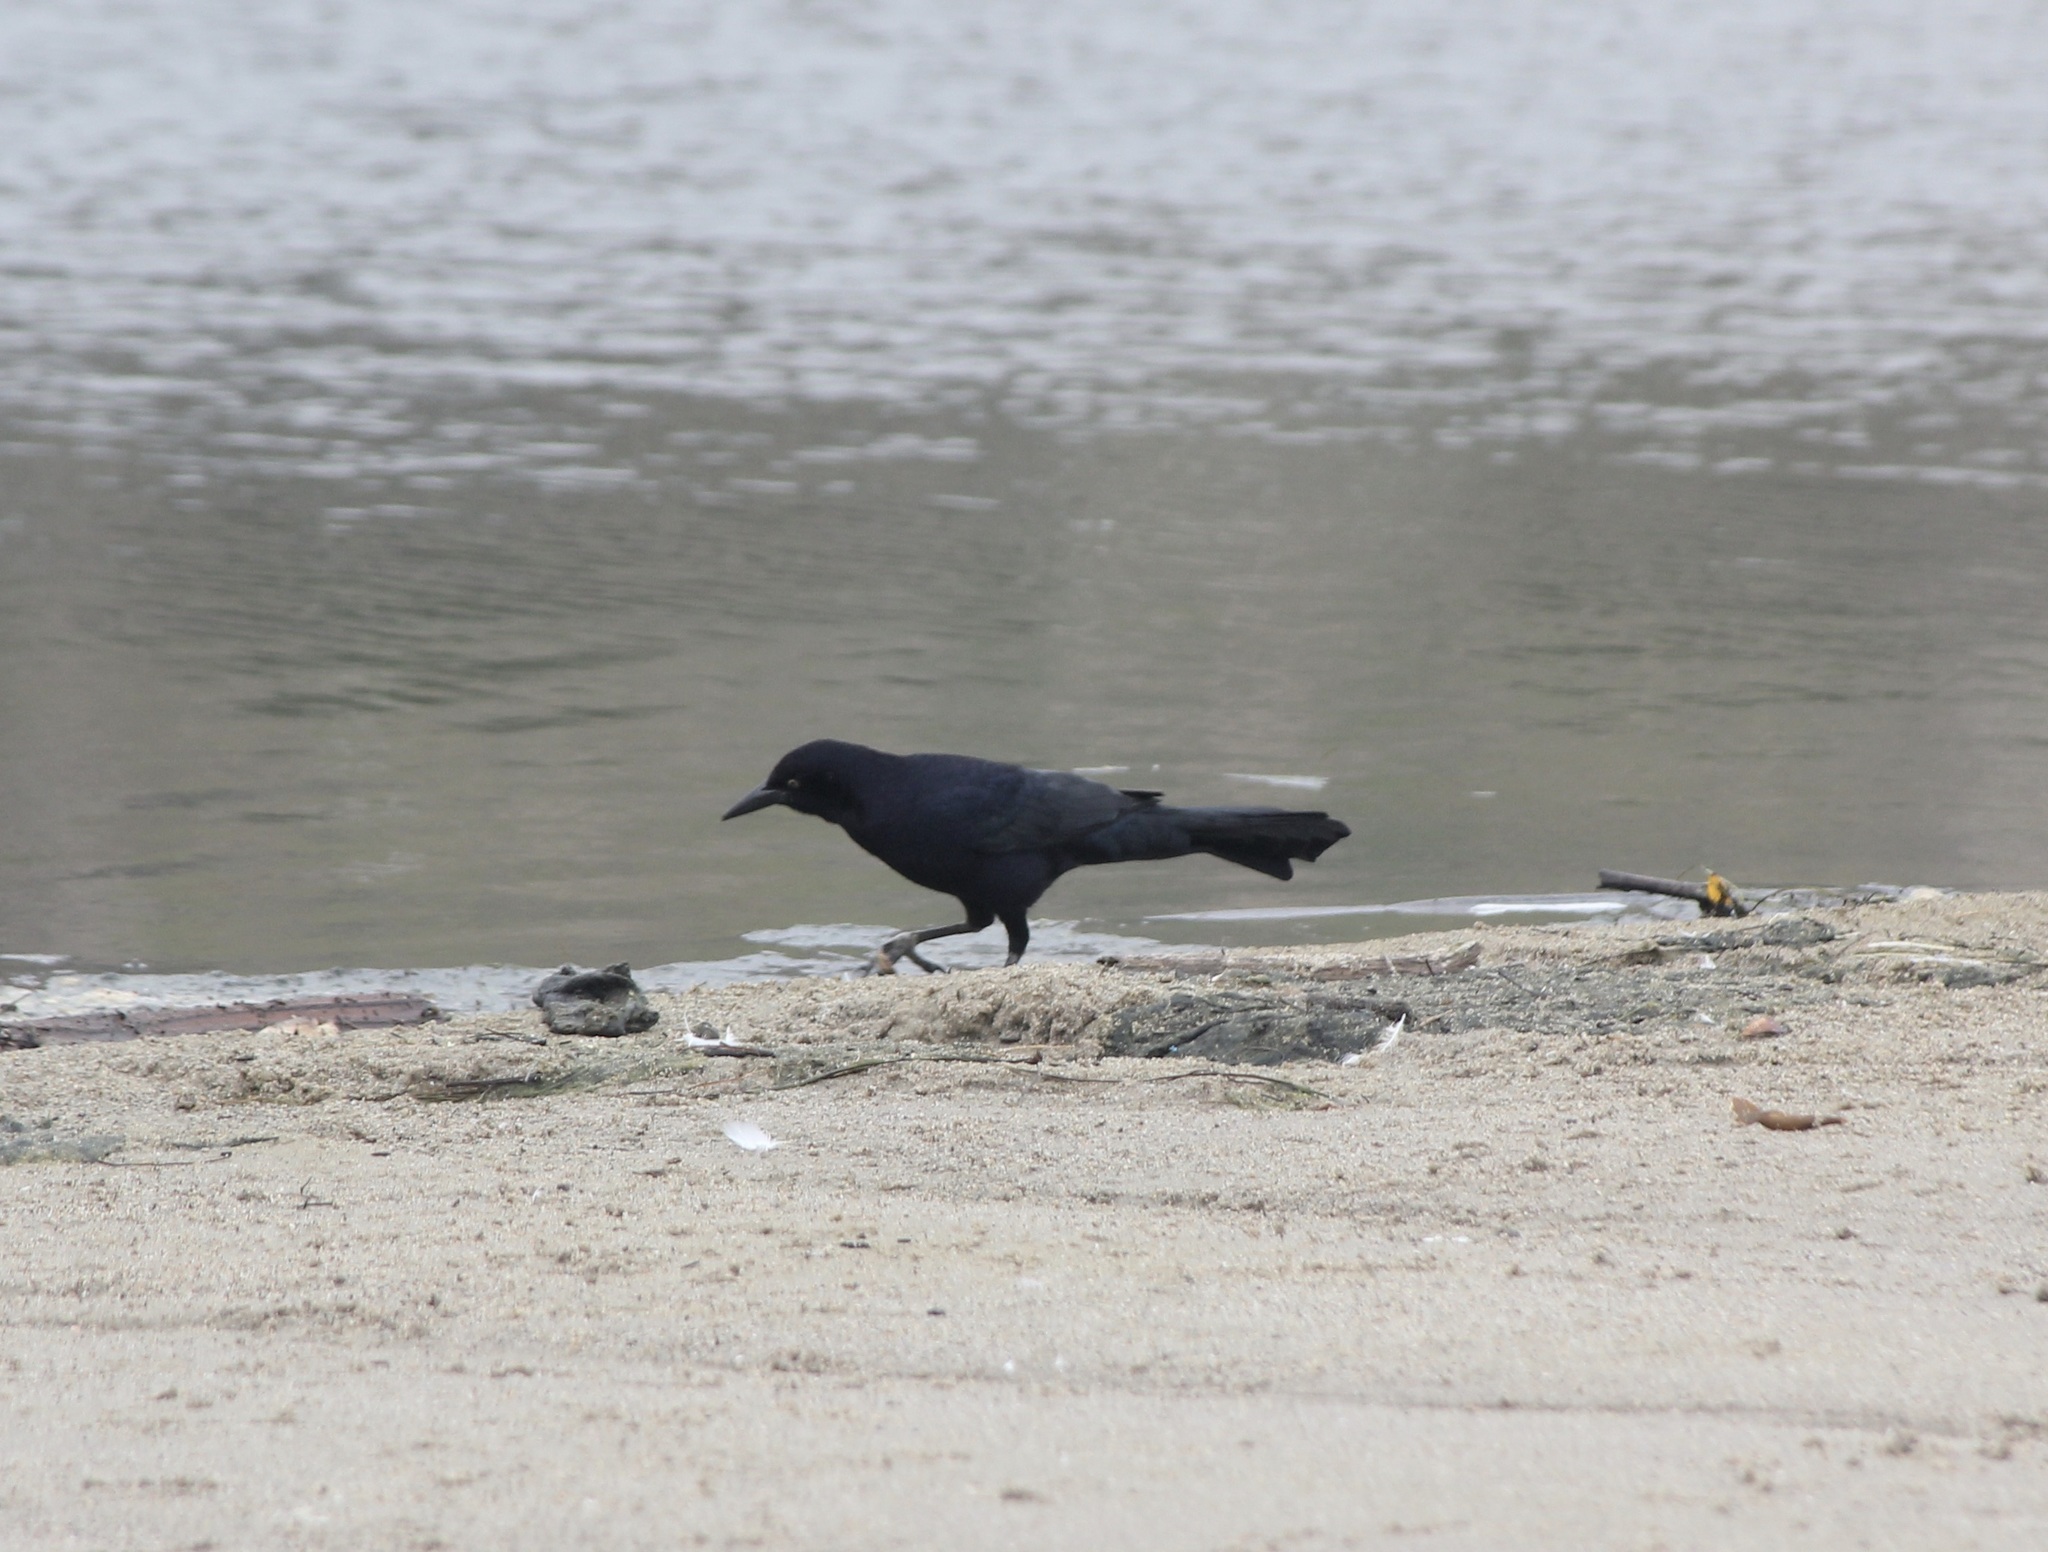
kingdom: Animalia
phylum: Chordata
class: Aves
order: Passeriformes
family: Icteridae
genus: Quiscalus
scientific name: Quiscalus mexicanus
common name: Great-tailed grackle
